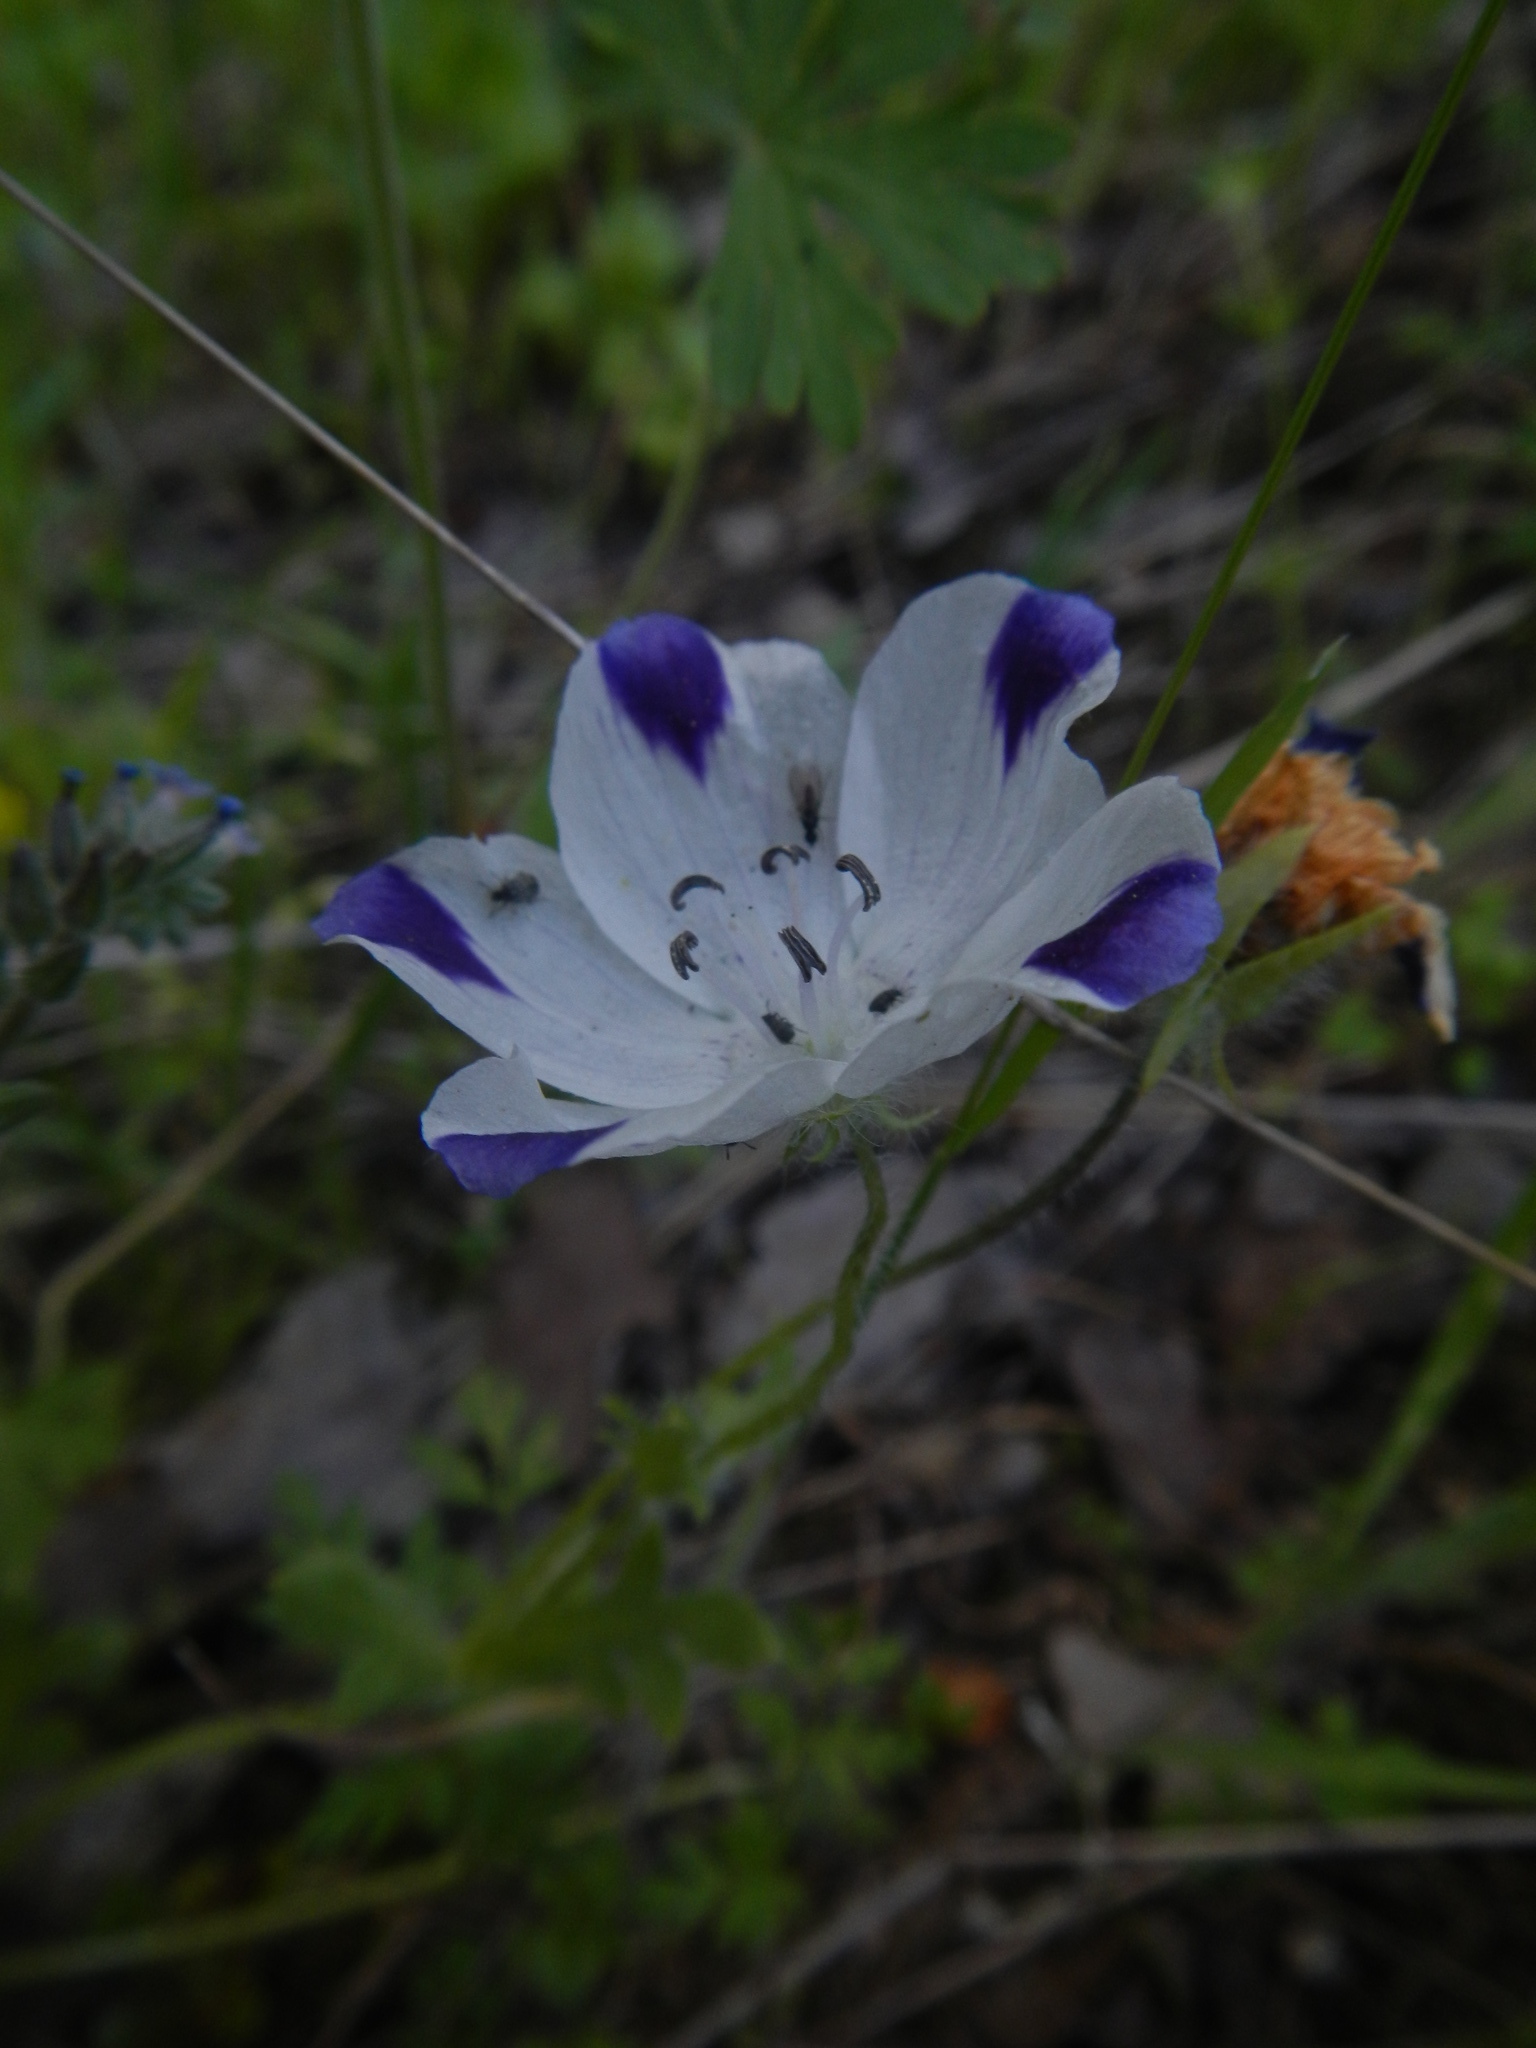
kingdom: Plantae
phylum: Tracheophyta
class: Magnoliopsida
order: Boraginales
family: Hydrophyllaceae
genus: Nemophila
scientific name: Nemophila maculata
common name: Fivespot
